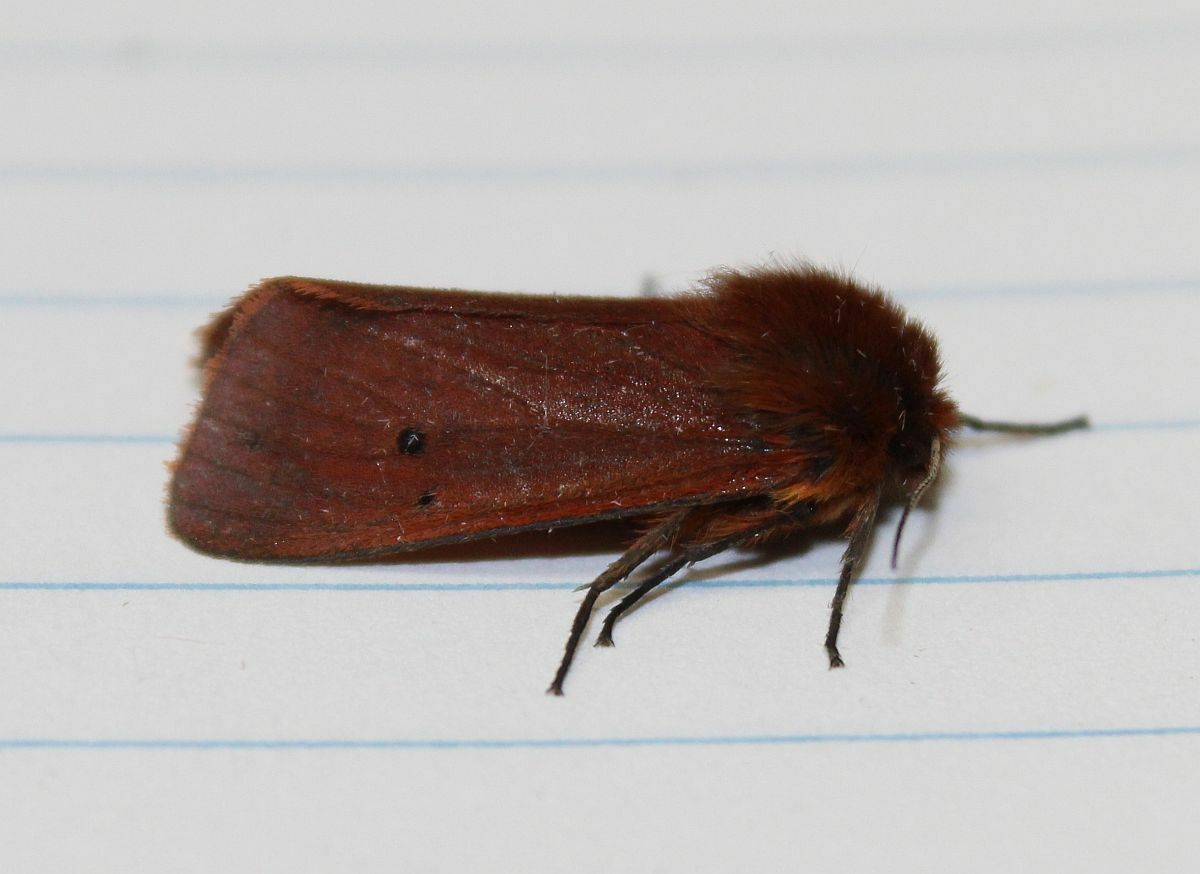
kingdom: Animalia
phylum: Arthropoda
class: Insecta
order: Lepidoptera
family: Erebidae
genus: Phragmatobia
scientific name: Phragmatobia fuliginosa
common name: Ruby tiger
